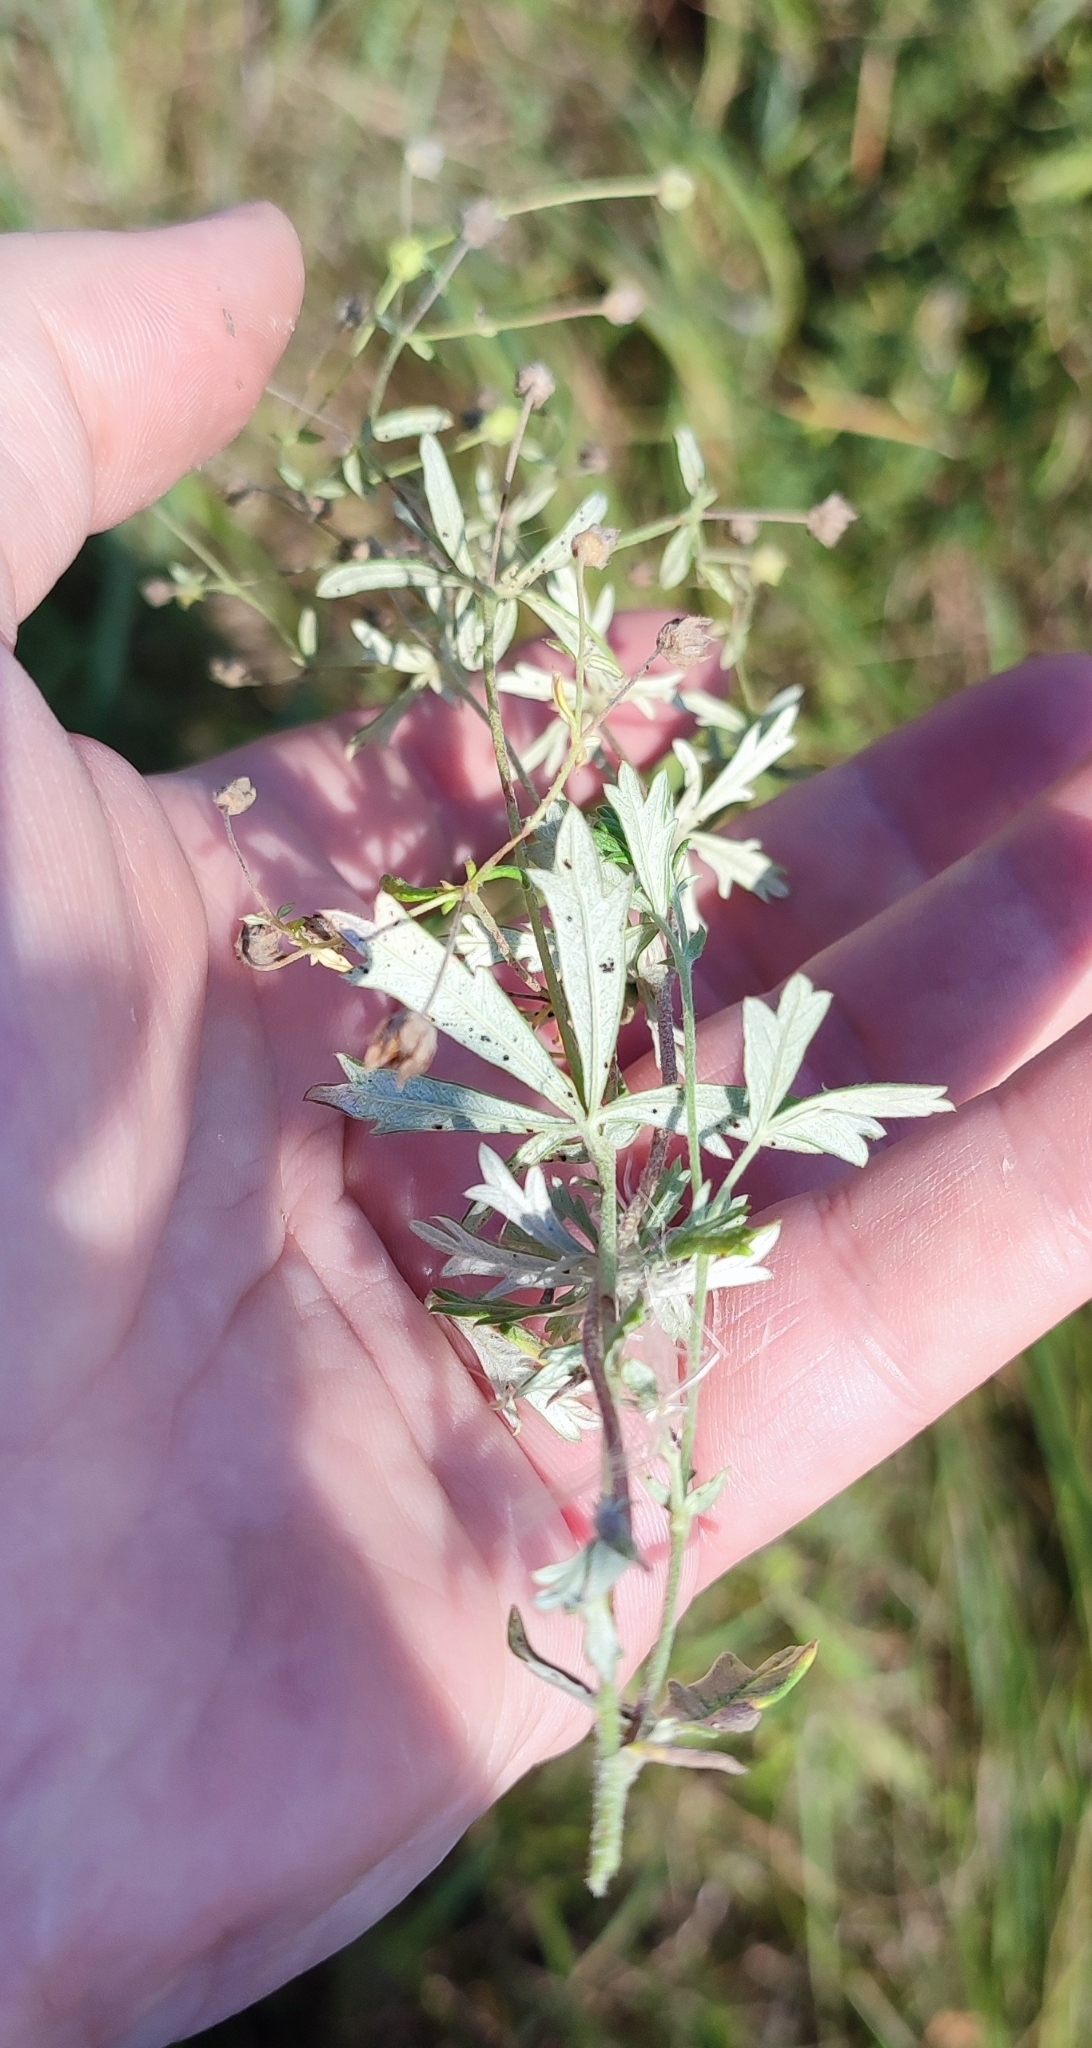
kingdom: Plantae
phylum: Tracheophyta
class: Magnoliopsida
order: Rosales
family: Rosaceae
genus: Potentilla
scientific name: Potentilla argentea
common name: Hoary cinquefoil
